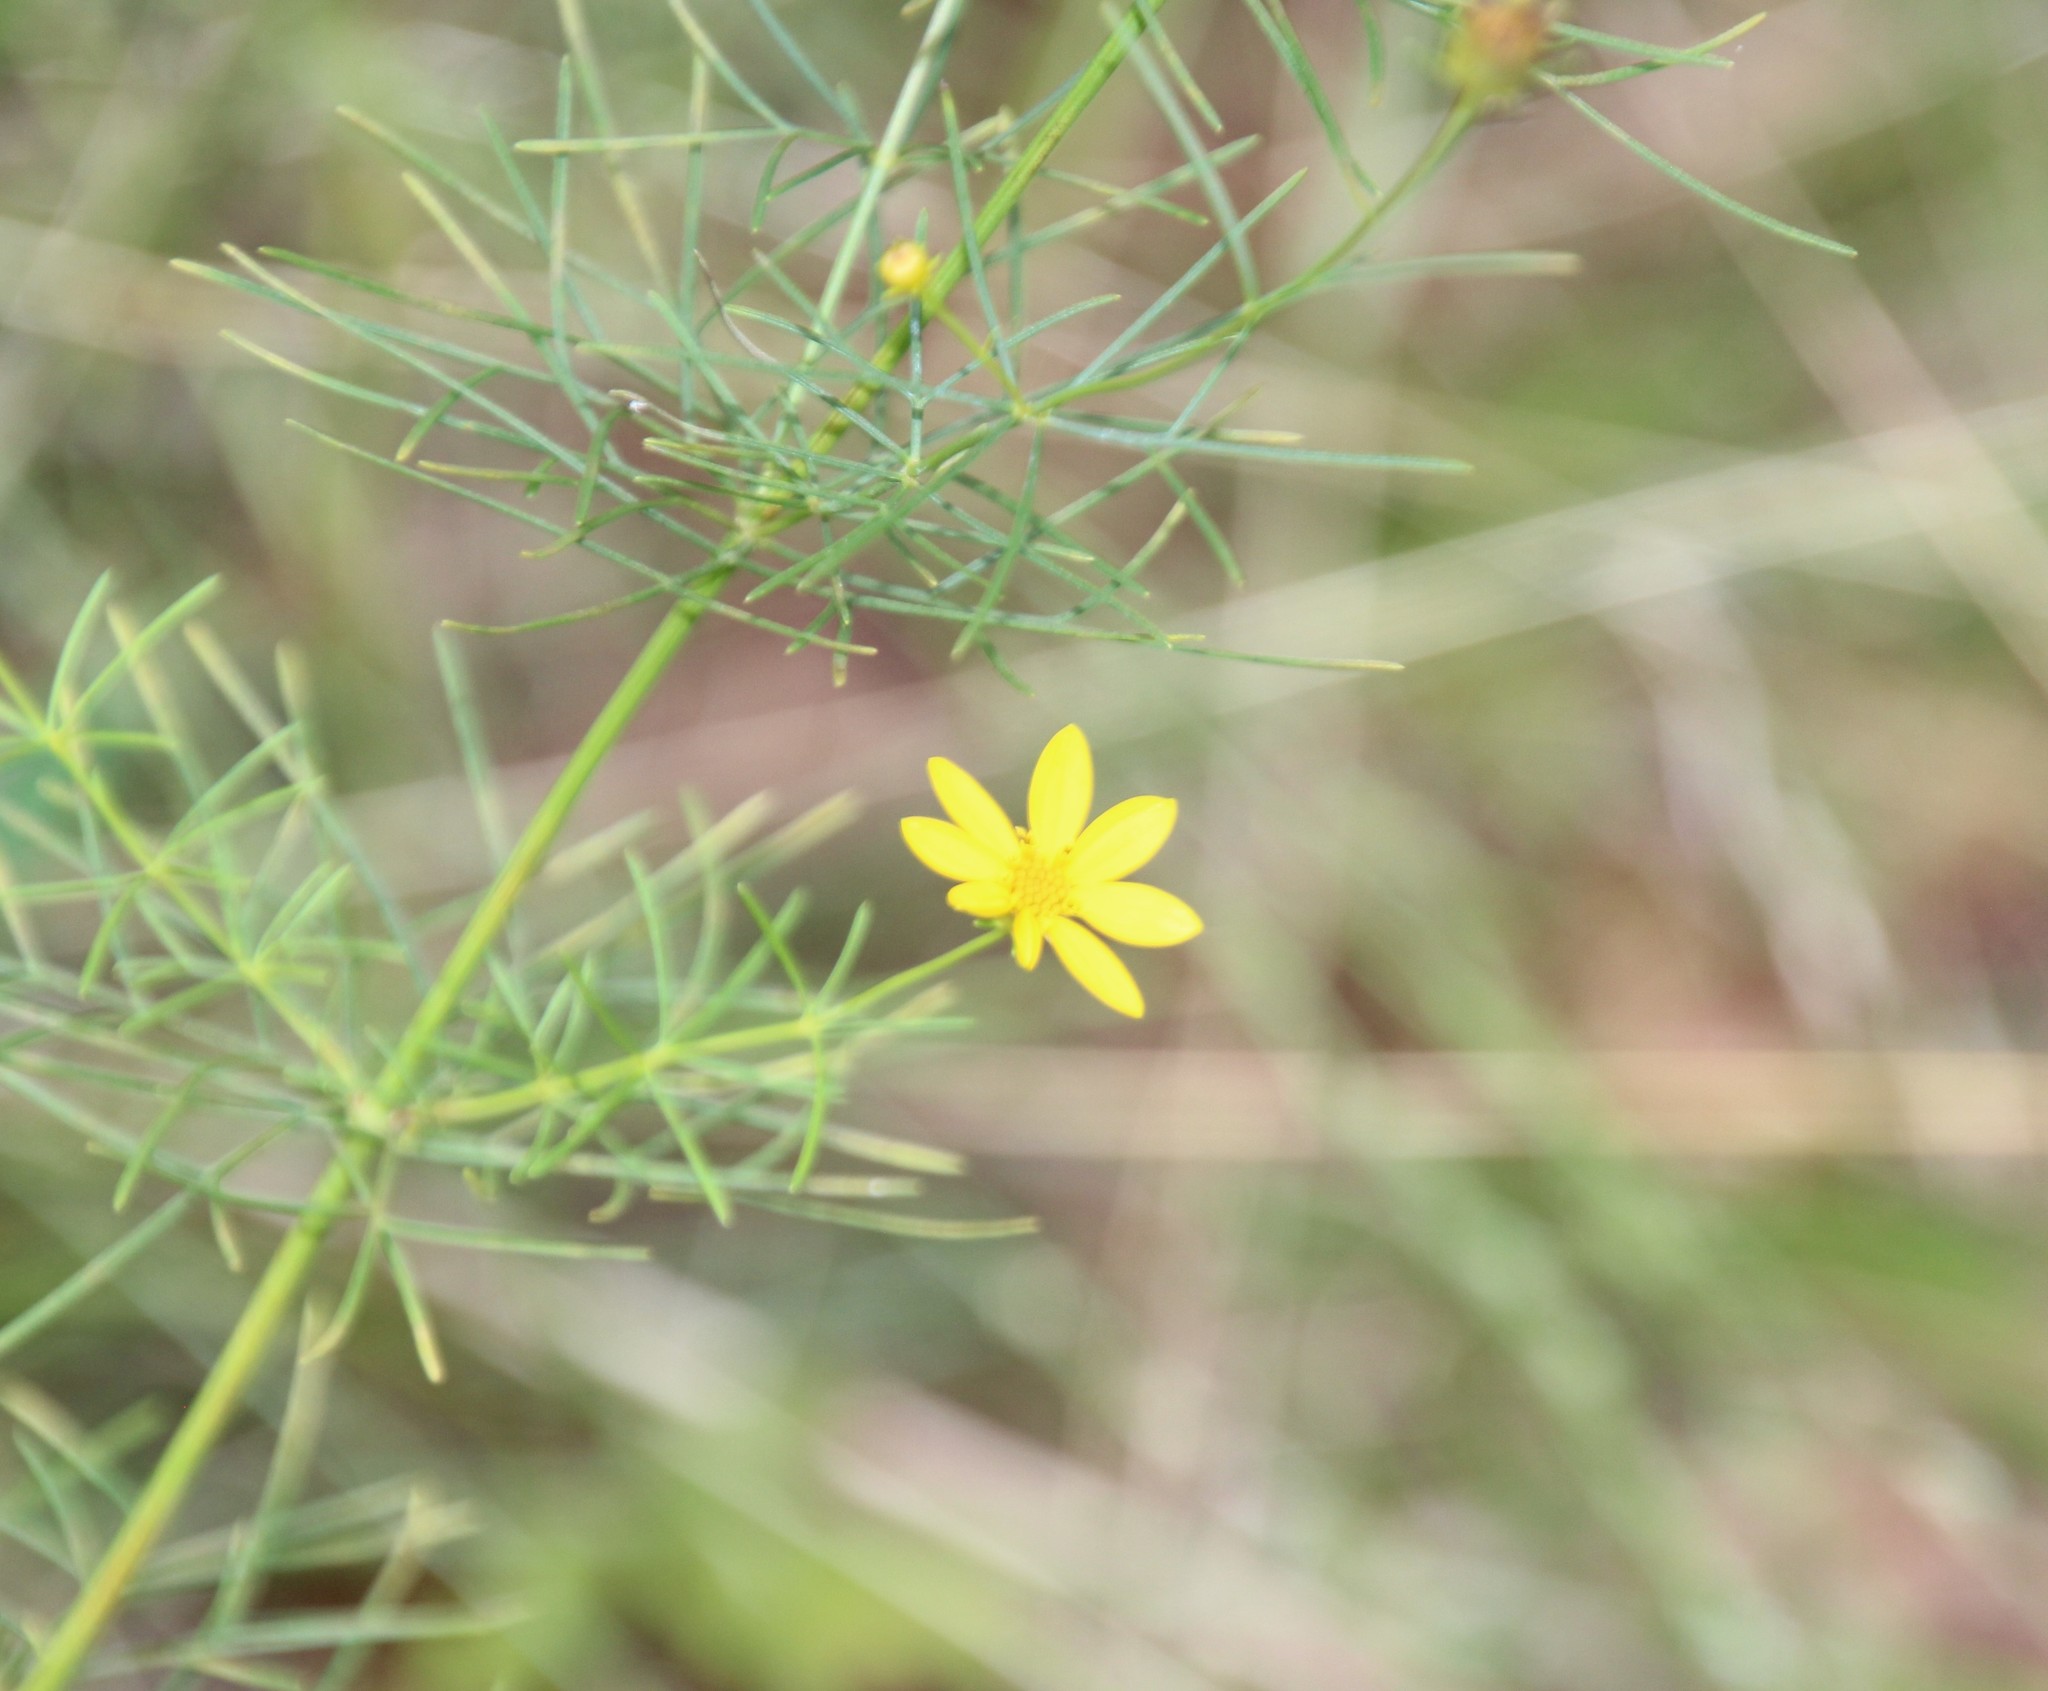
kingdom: Plantae
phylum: Tracheophyta
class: Magnoliopsida
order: Asterales
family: Asteraceae
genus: Coreopsis
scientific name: Coreopsis verticillata
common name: Whorled tickseed
